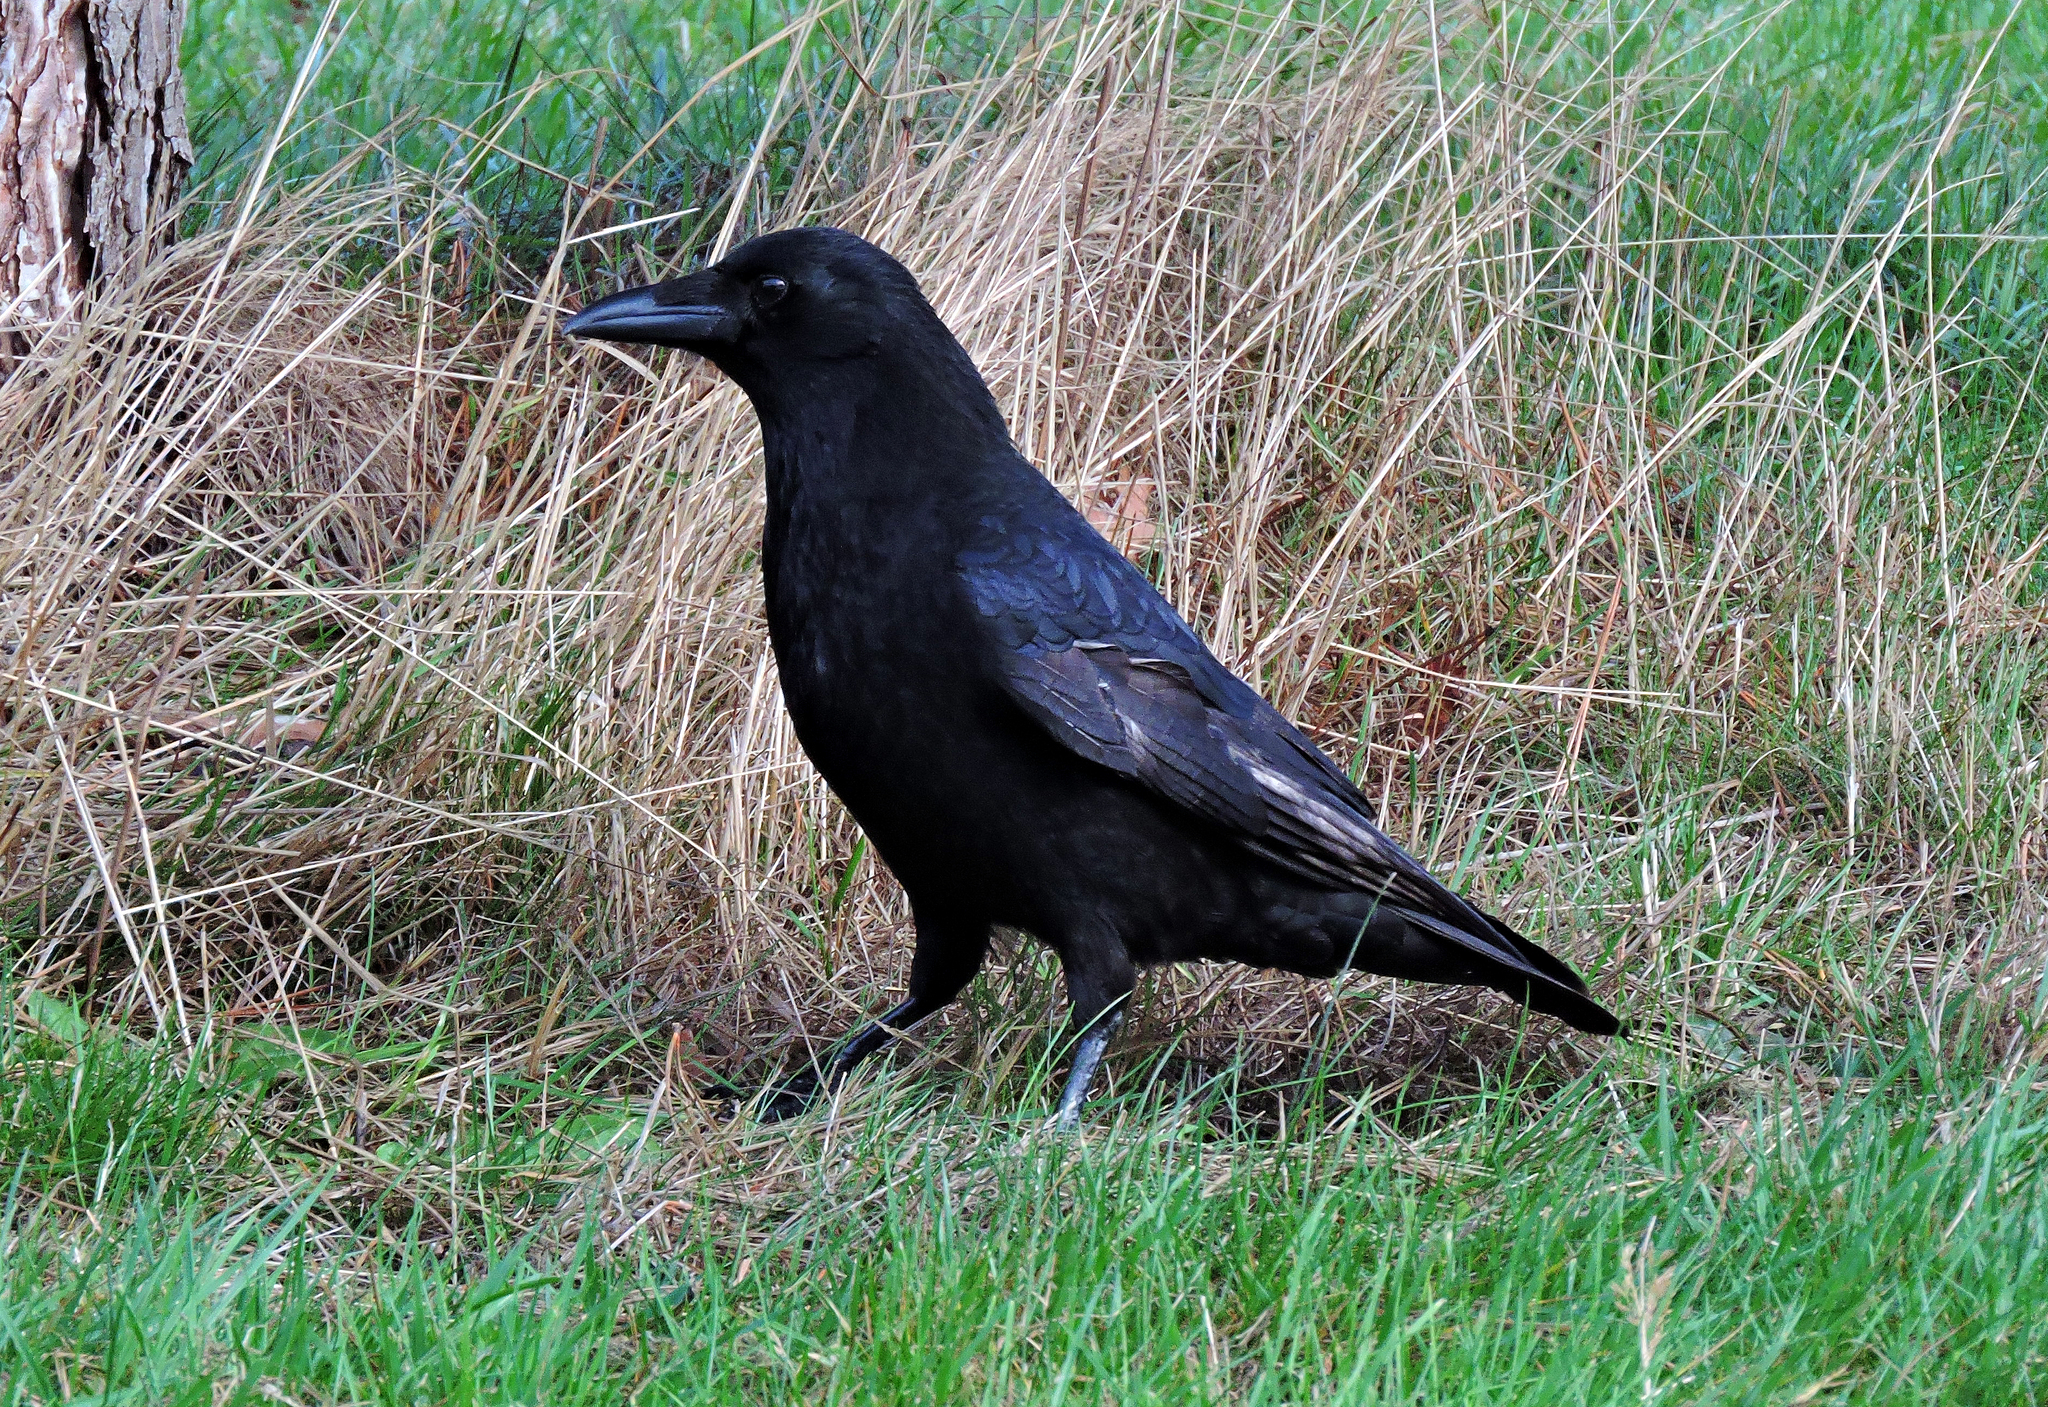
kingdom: Animalia
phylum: Chordata
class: Aves
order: Passeriformes
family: Corvidae
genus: Corvus
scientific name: Corvus corone
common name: Carrion crow
